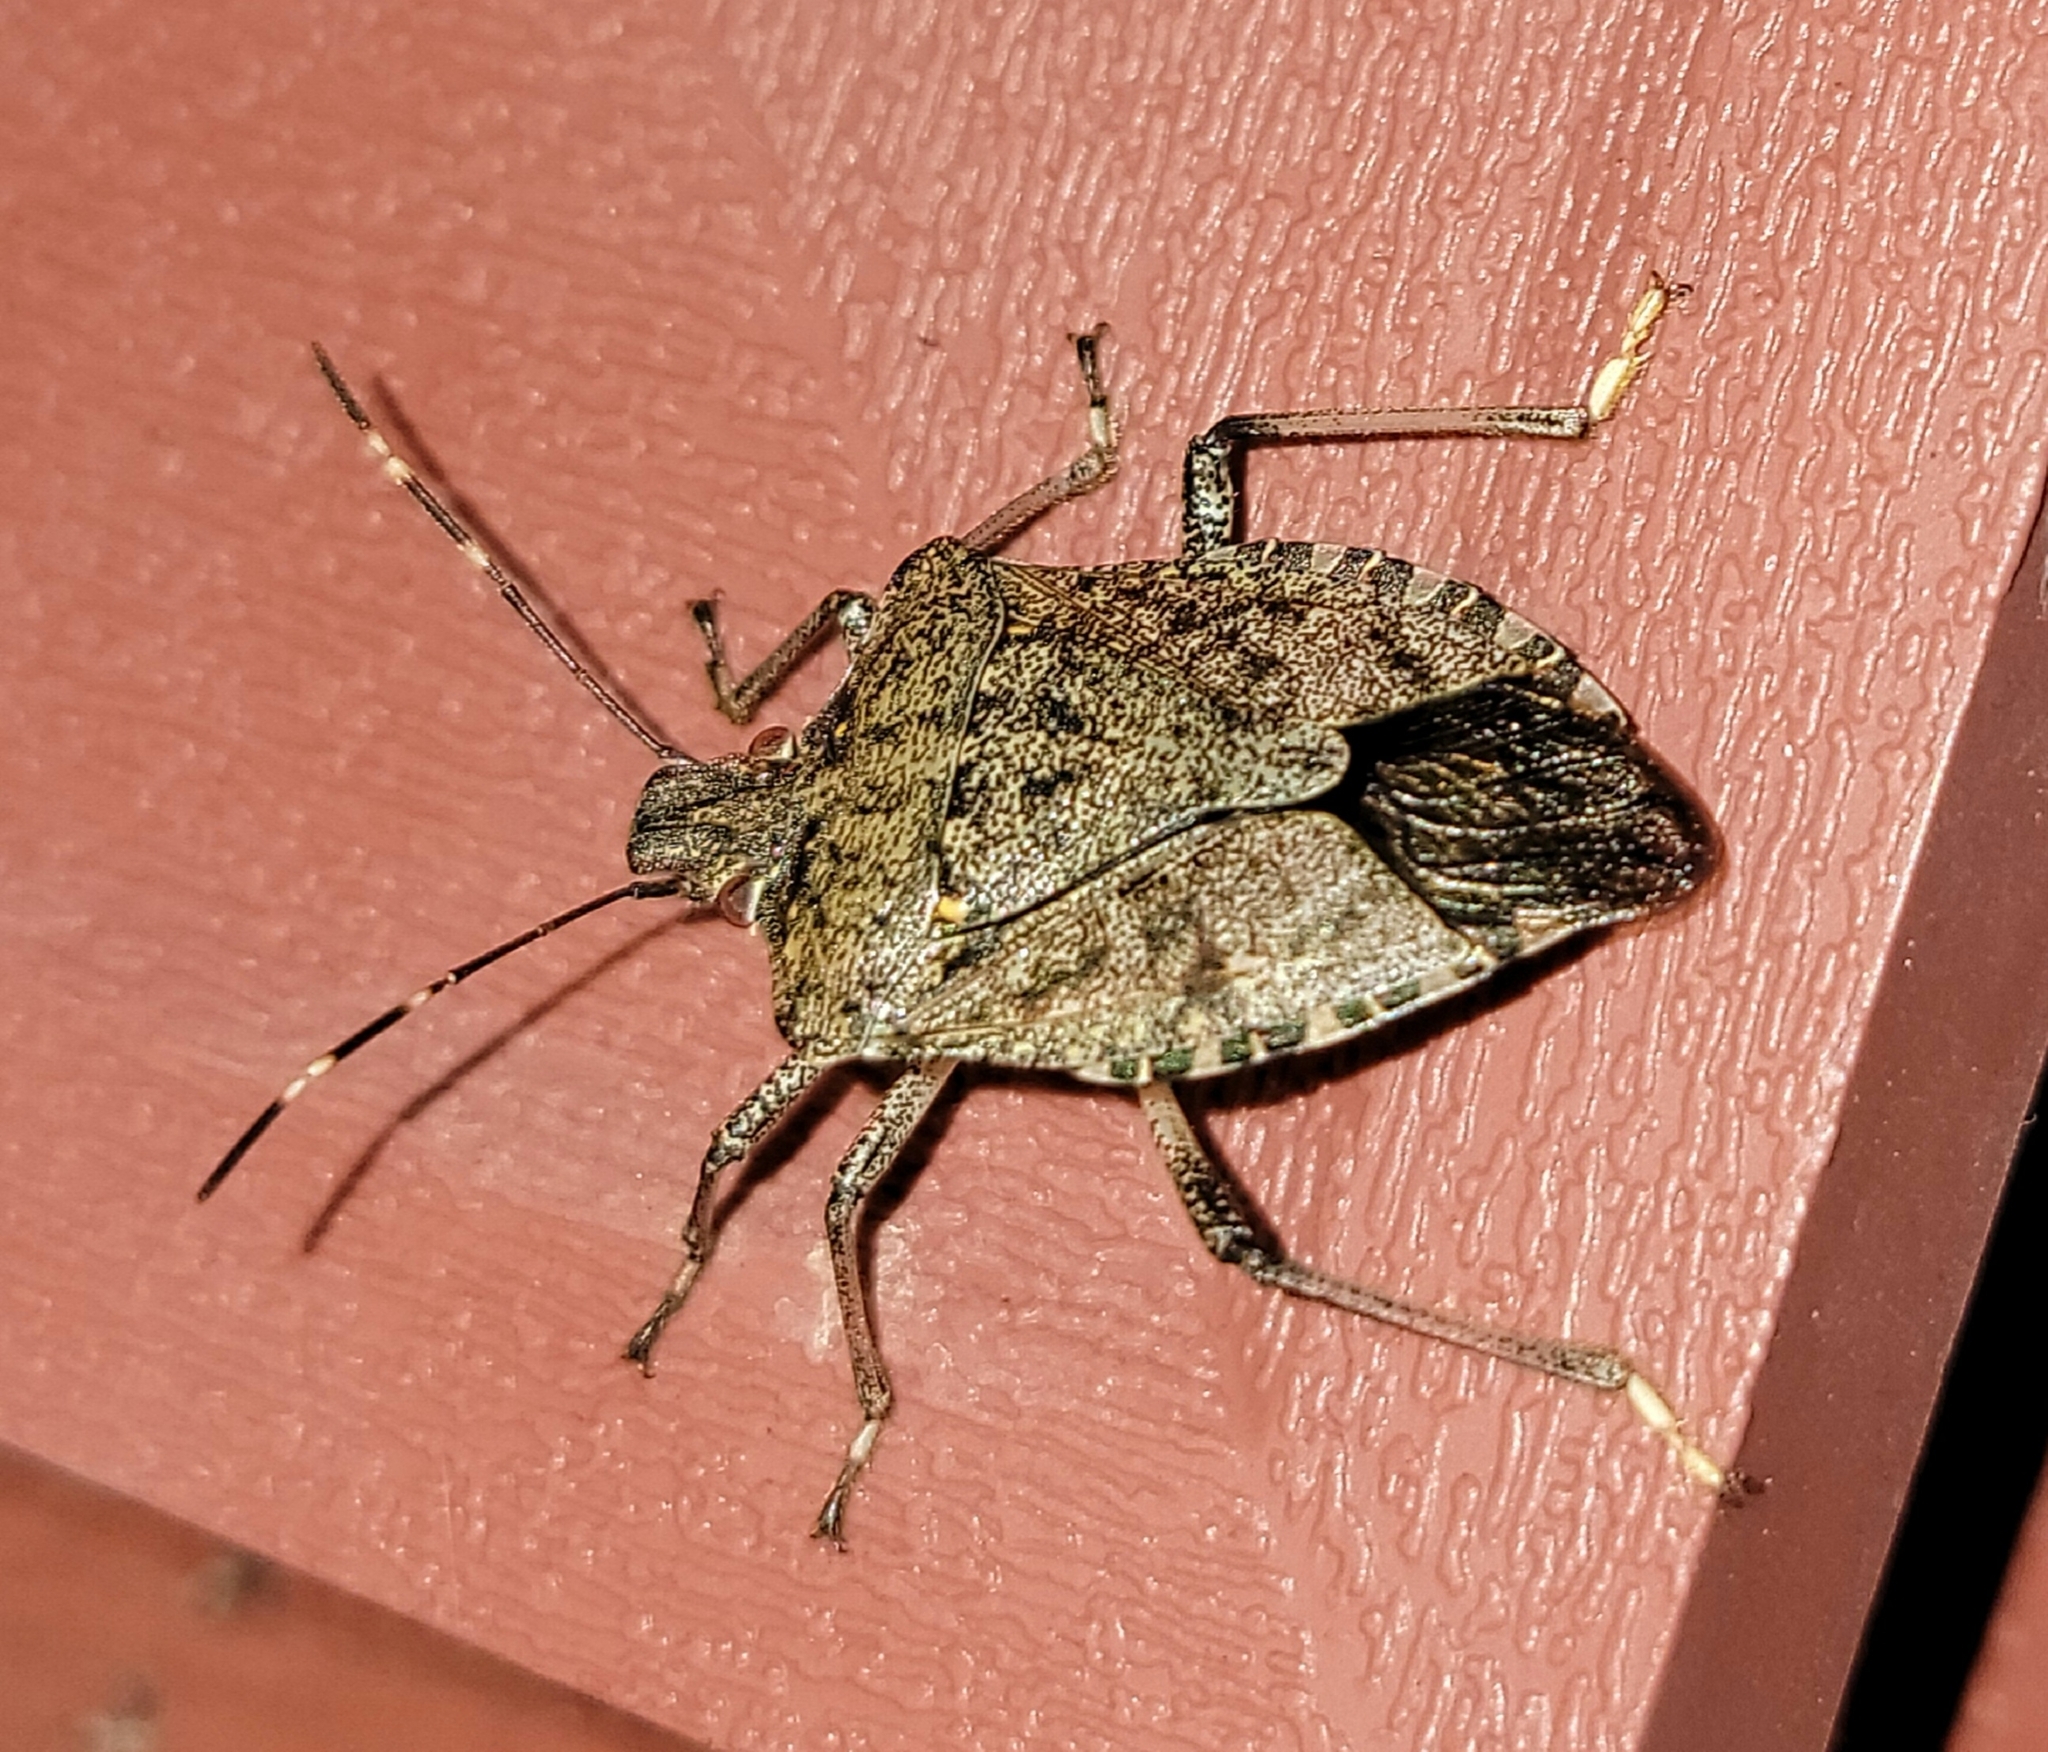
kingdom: Animalia
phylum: Arthropoda
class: Insecta
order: Hemiptera
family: Pentatomidae
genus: Halyomorpha
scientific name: Halyomorpha halys
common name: Brown marmorated stink bug
